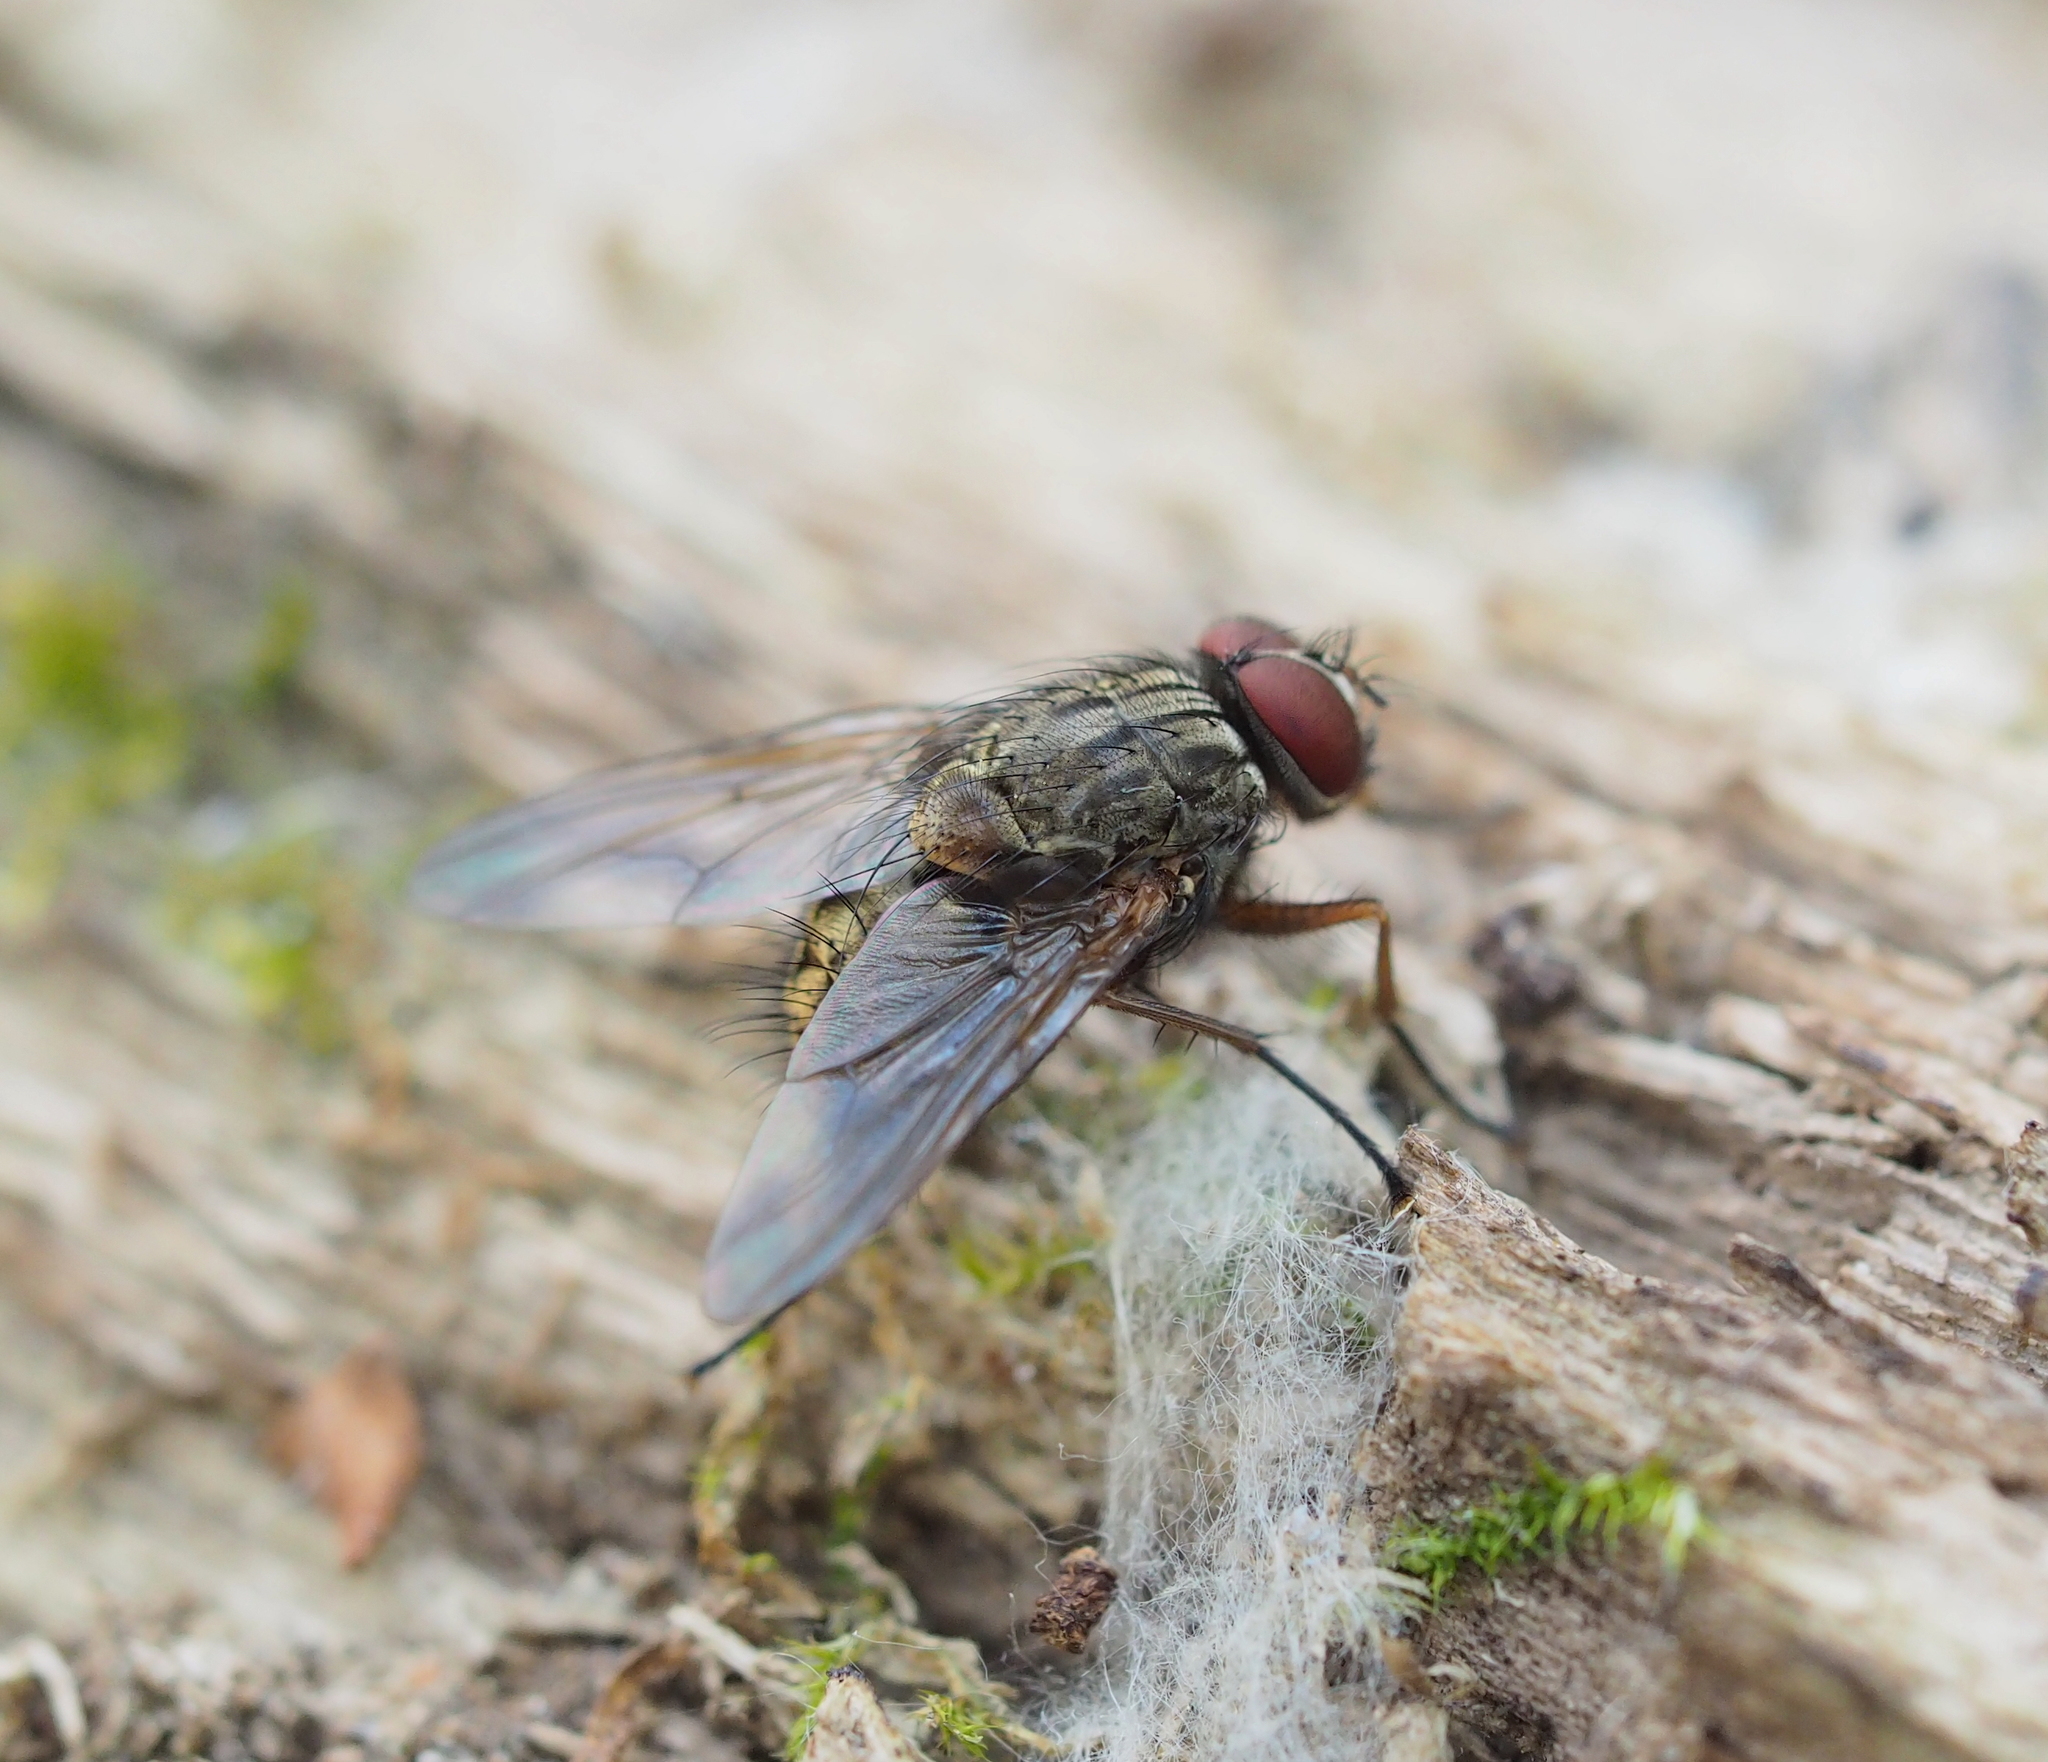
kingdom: Animalia
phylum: Arthropoda
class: Insecta
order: Diptera
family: Muscidae
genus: Phaonia
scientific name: Phaonia valida
